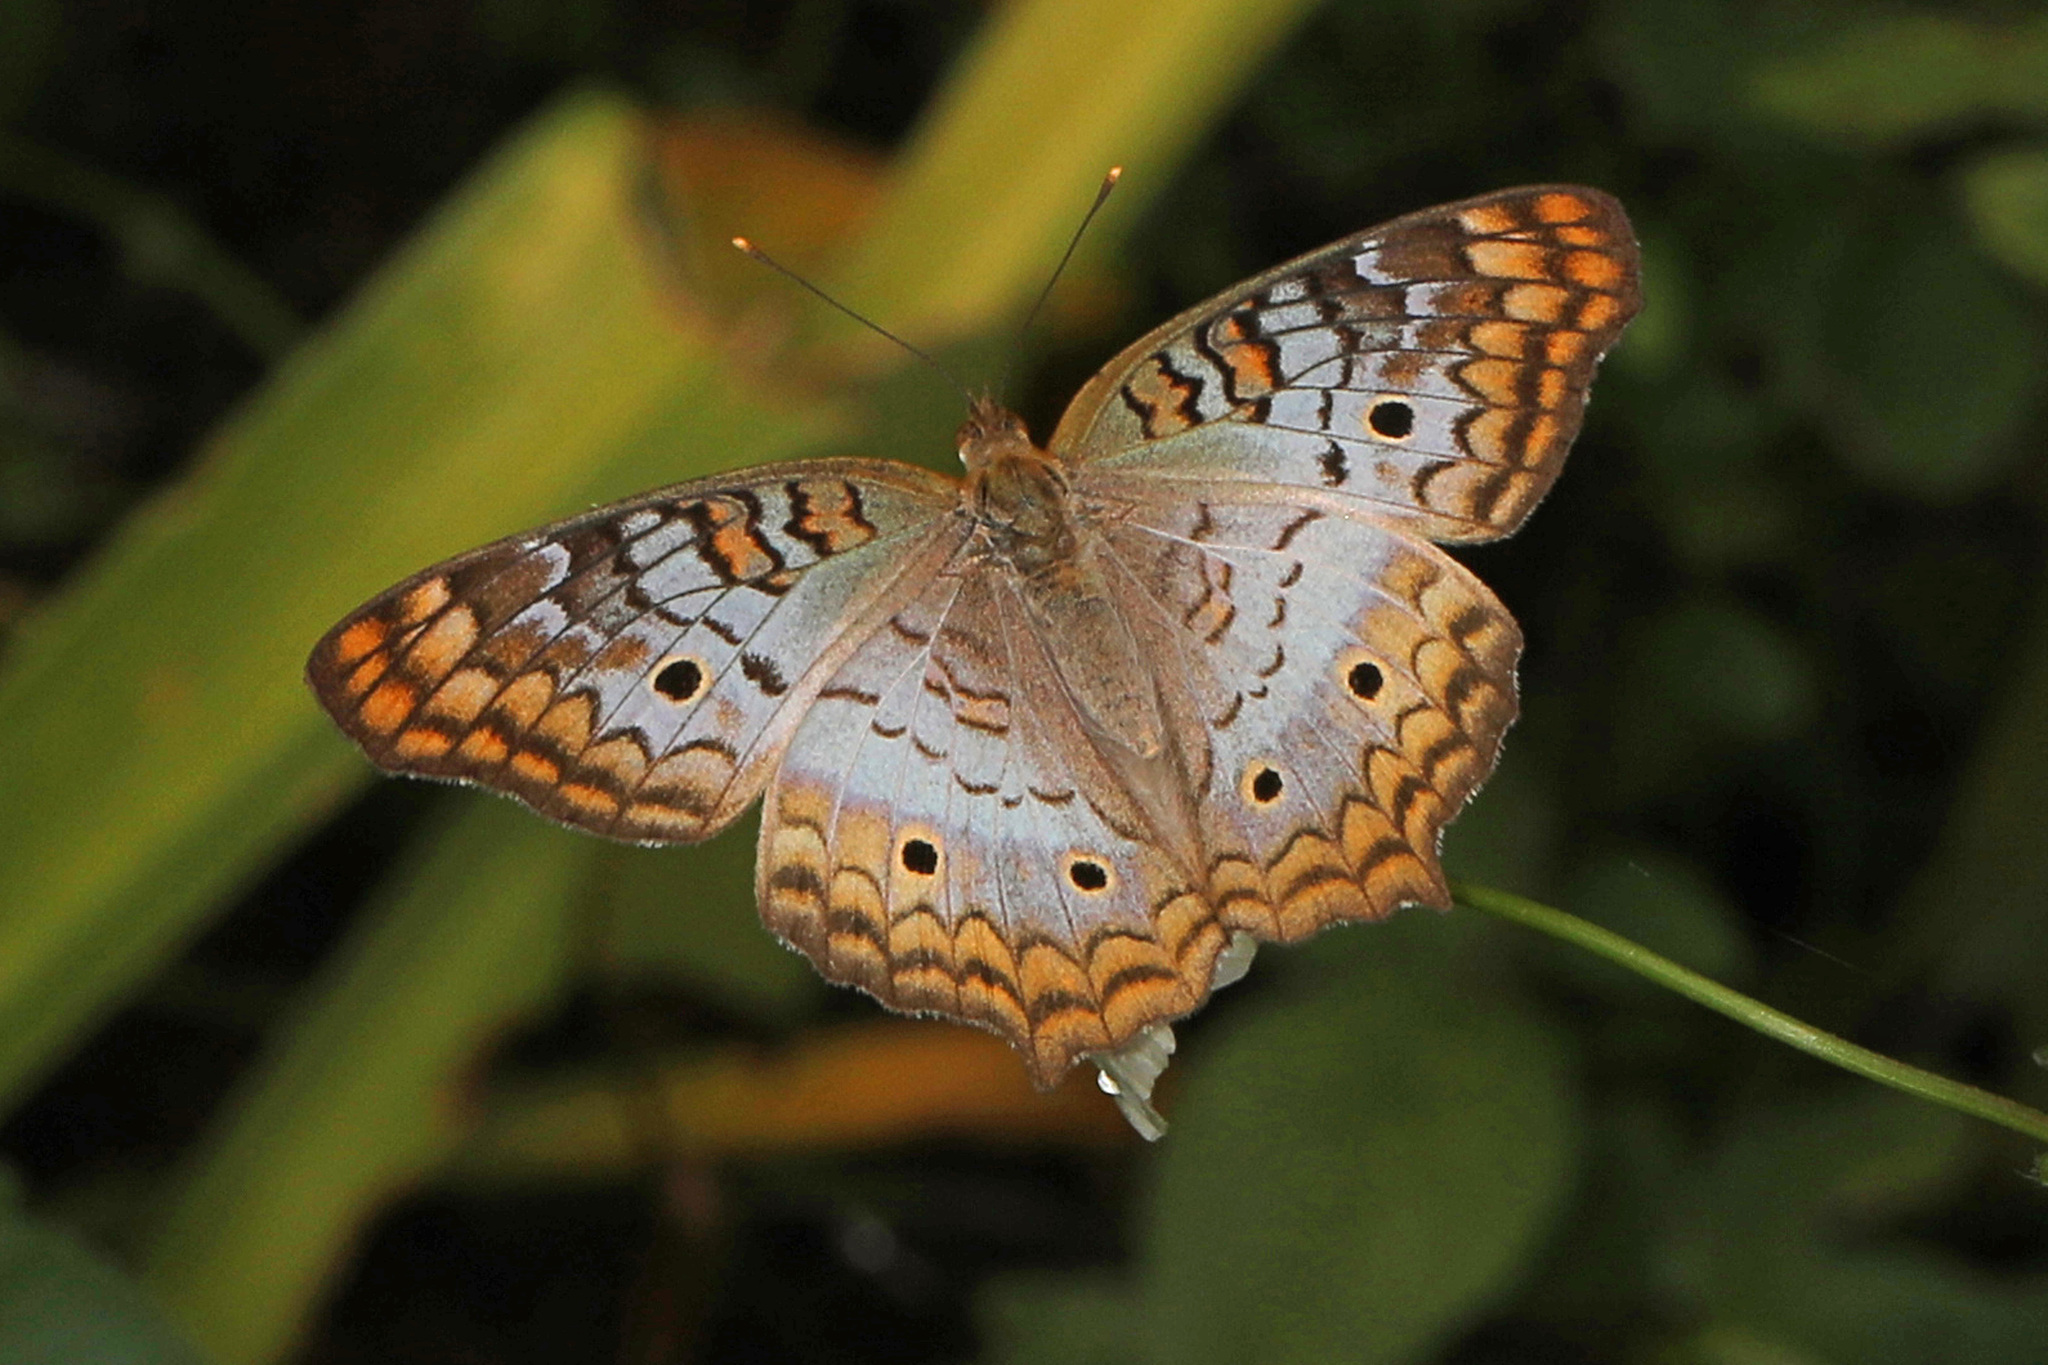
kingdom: Animalia
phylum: Arthropoda
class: Insecta
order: Lepidoptera
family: Nymphalidae
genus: Anartia
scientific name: Anartia jatrophae
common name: White peacock
